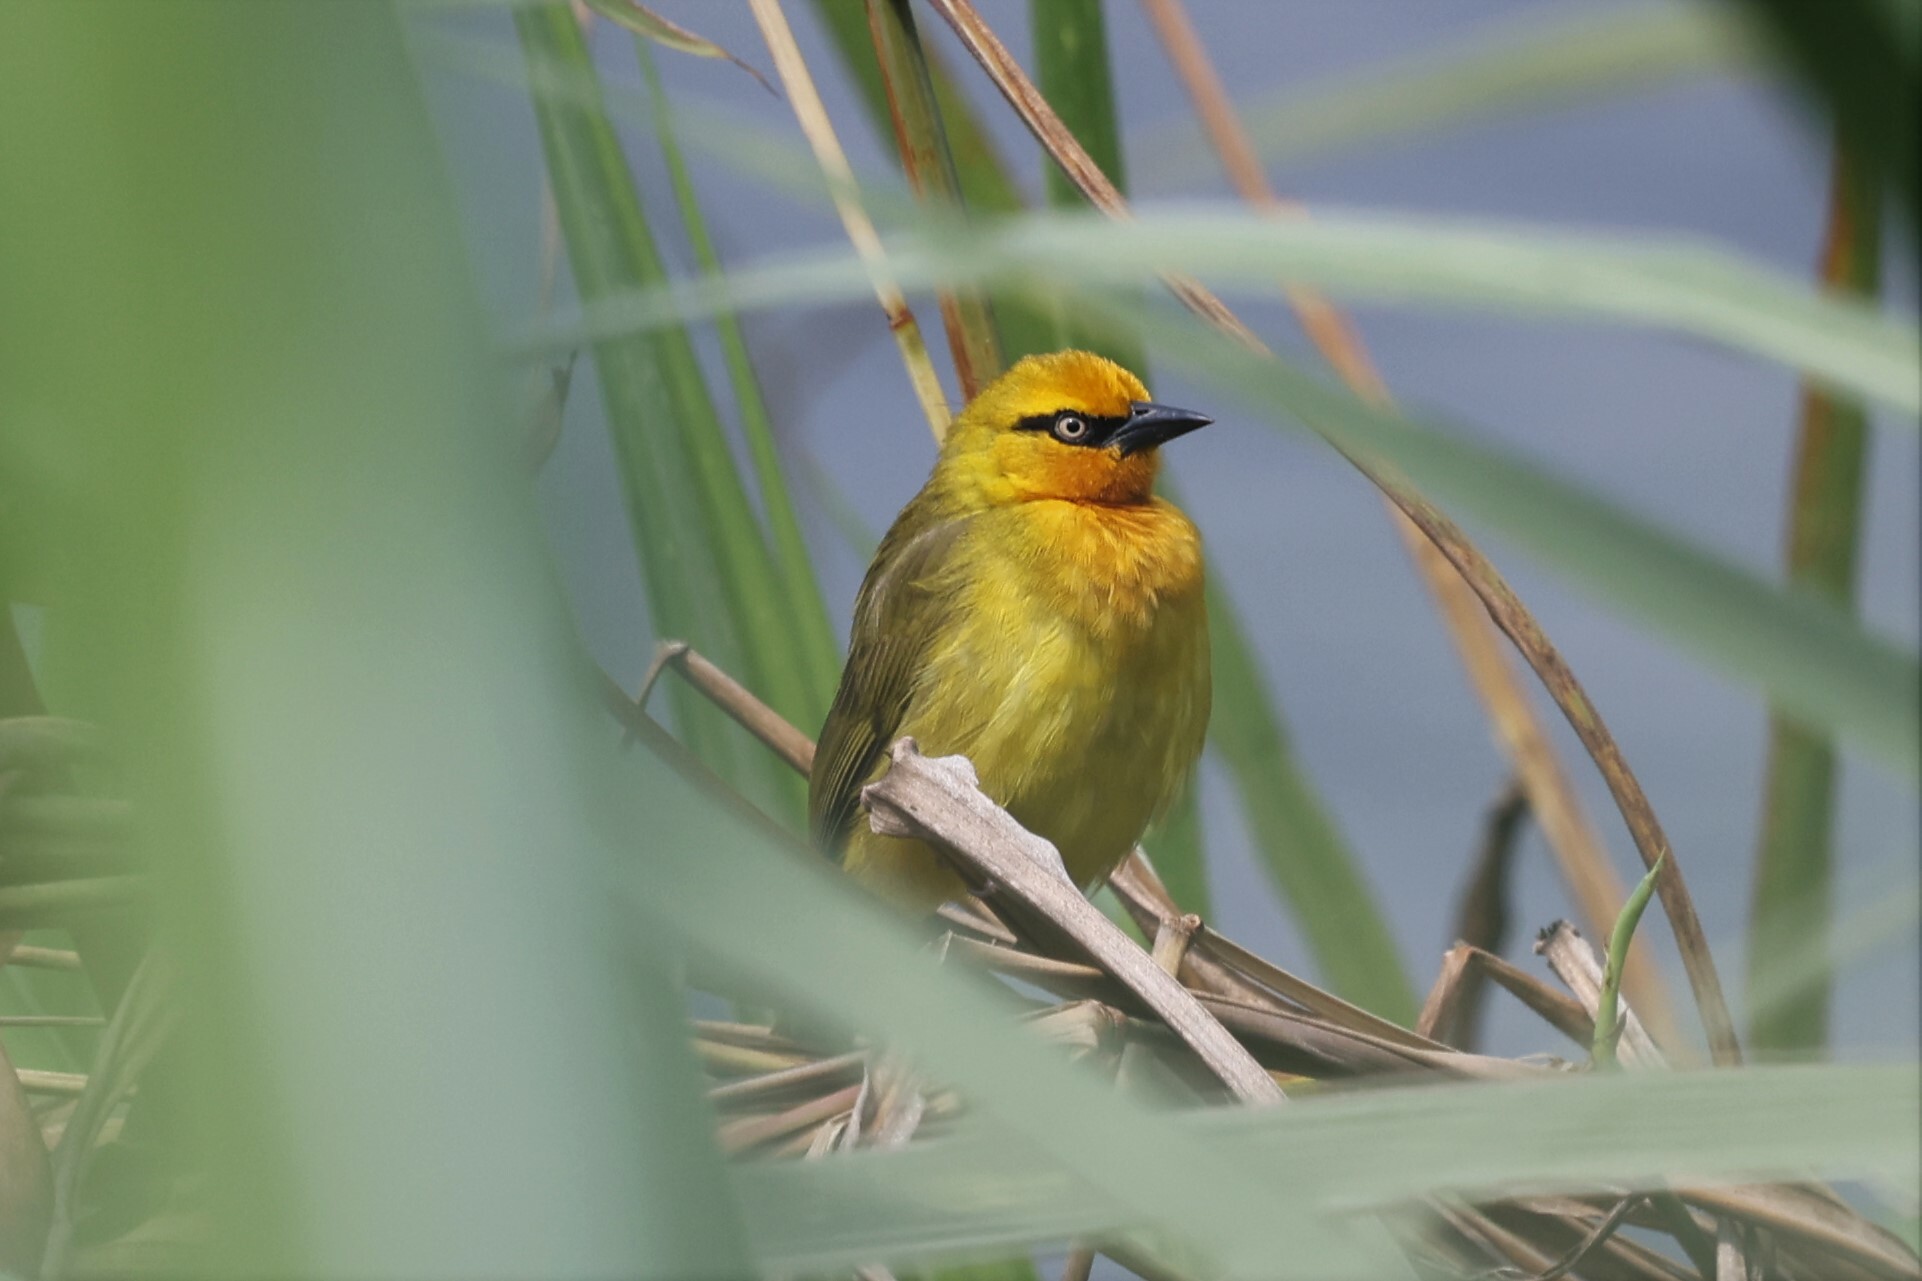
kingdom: Animalia
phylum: Chordata
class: Aves
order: Passeriformes
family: Ploceidae
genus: Ploceus
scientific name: Ploceus ocularis
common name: Spectacled weaver
